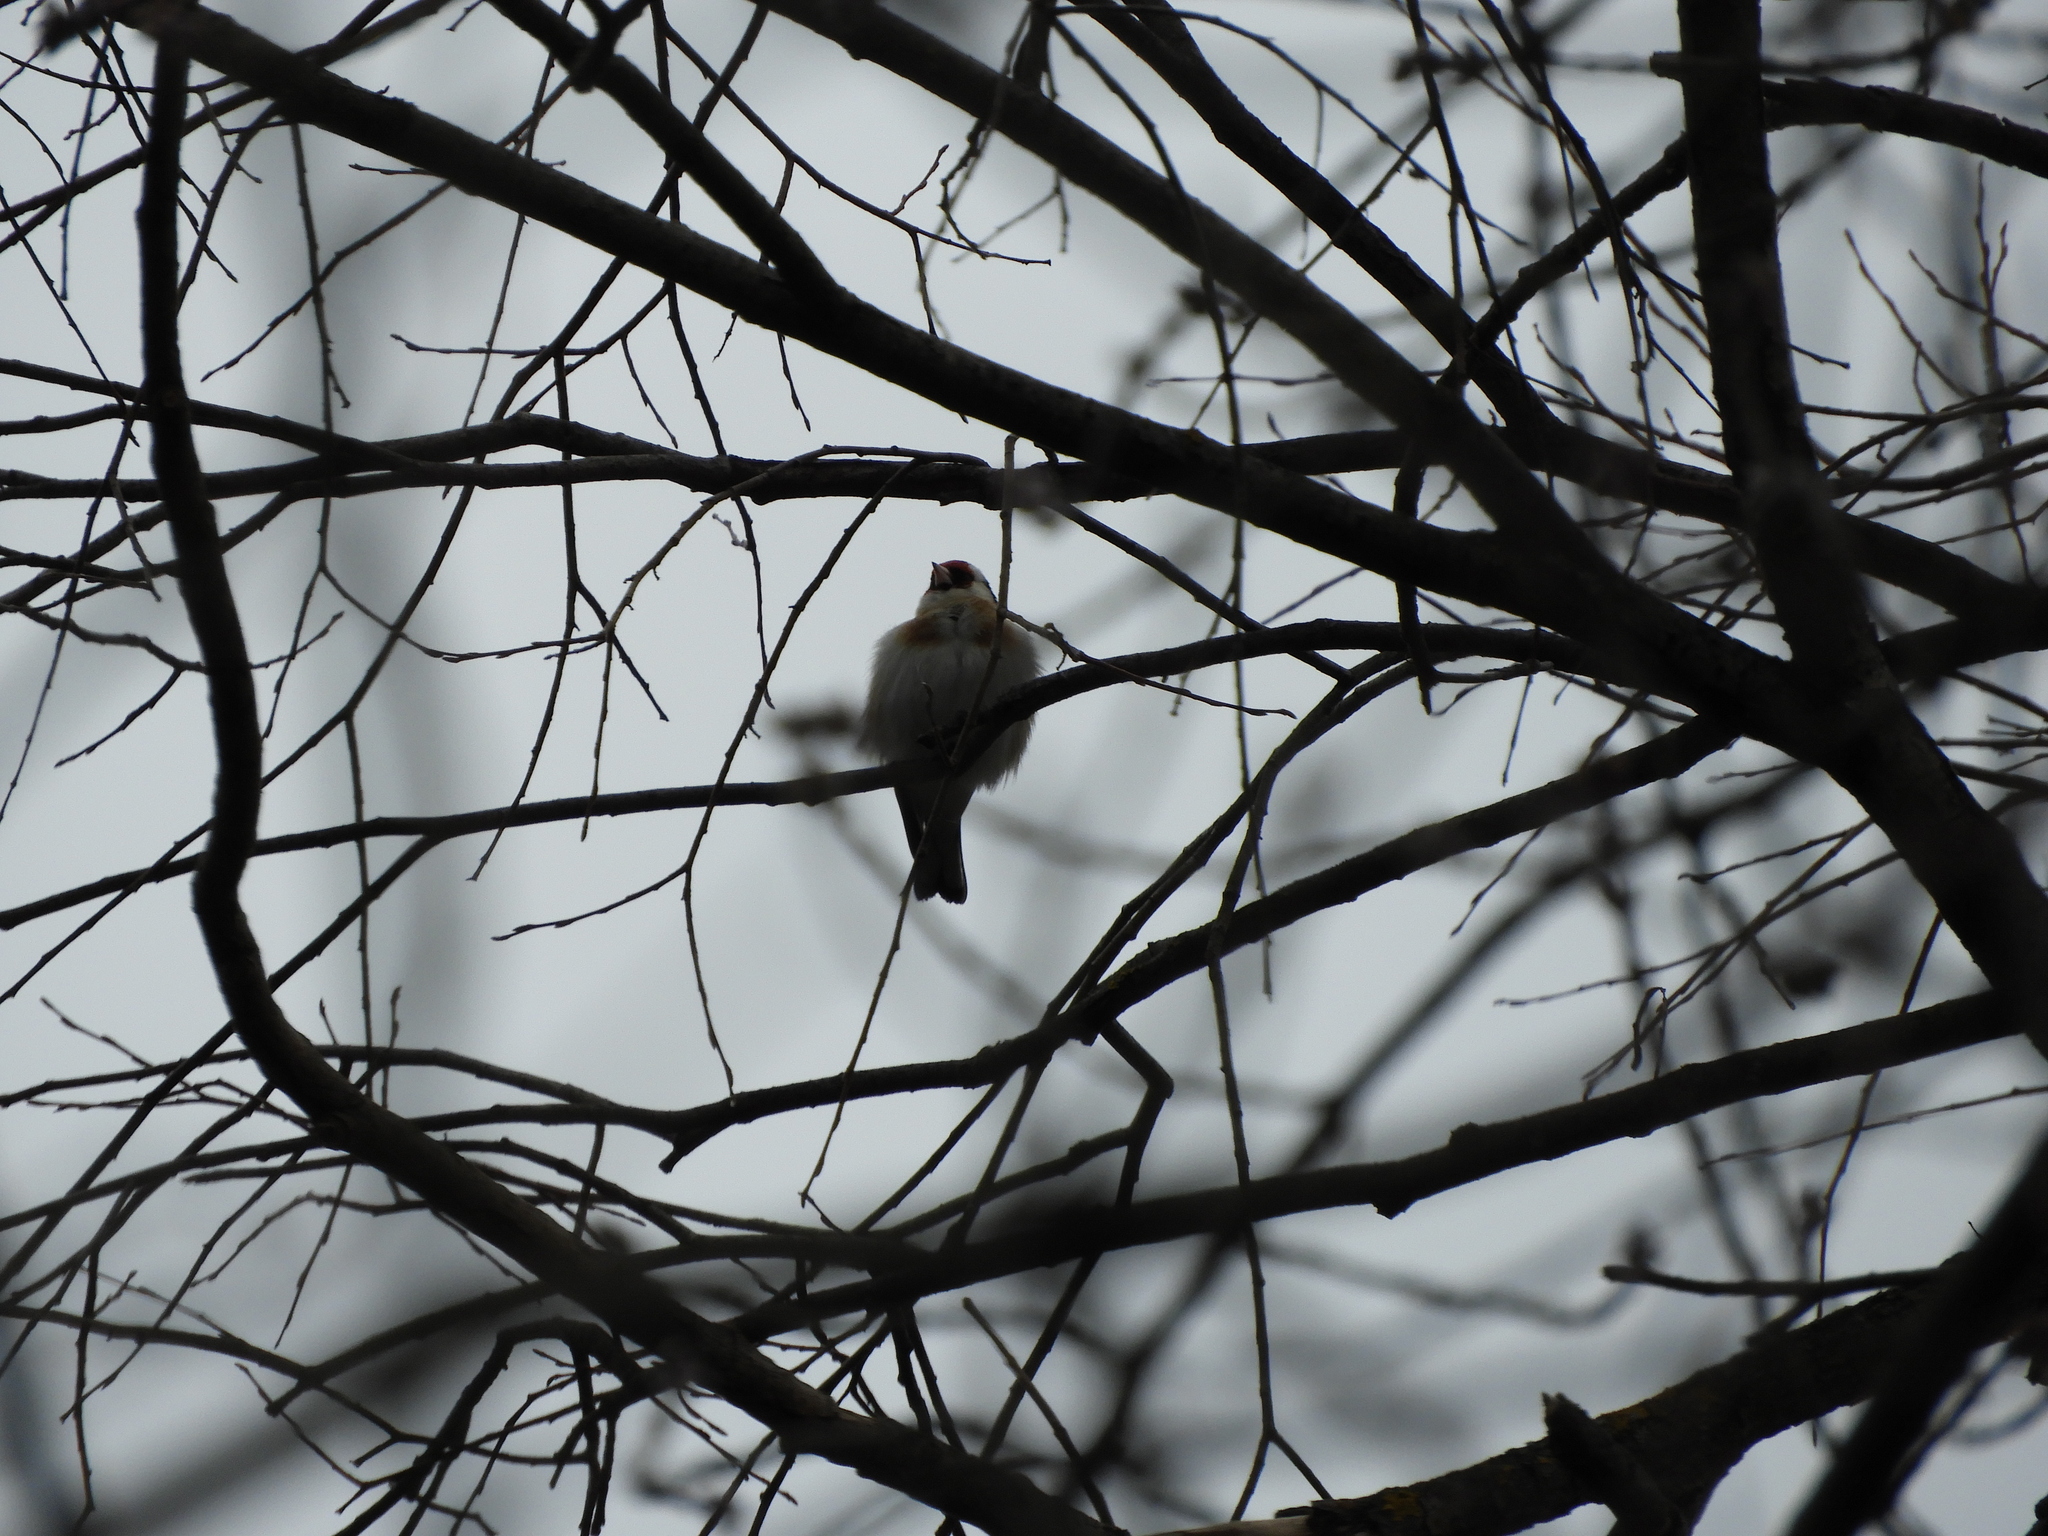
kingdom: Animalia
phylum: Chordata
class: Aves
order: Passeriformes
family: Fringillidae
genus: Carduelis
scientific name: Carduelis carduelis
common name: European goldfinch
